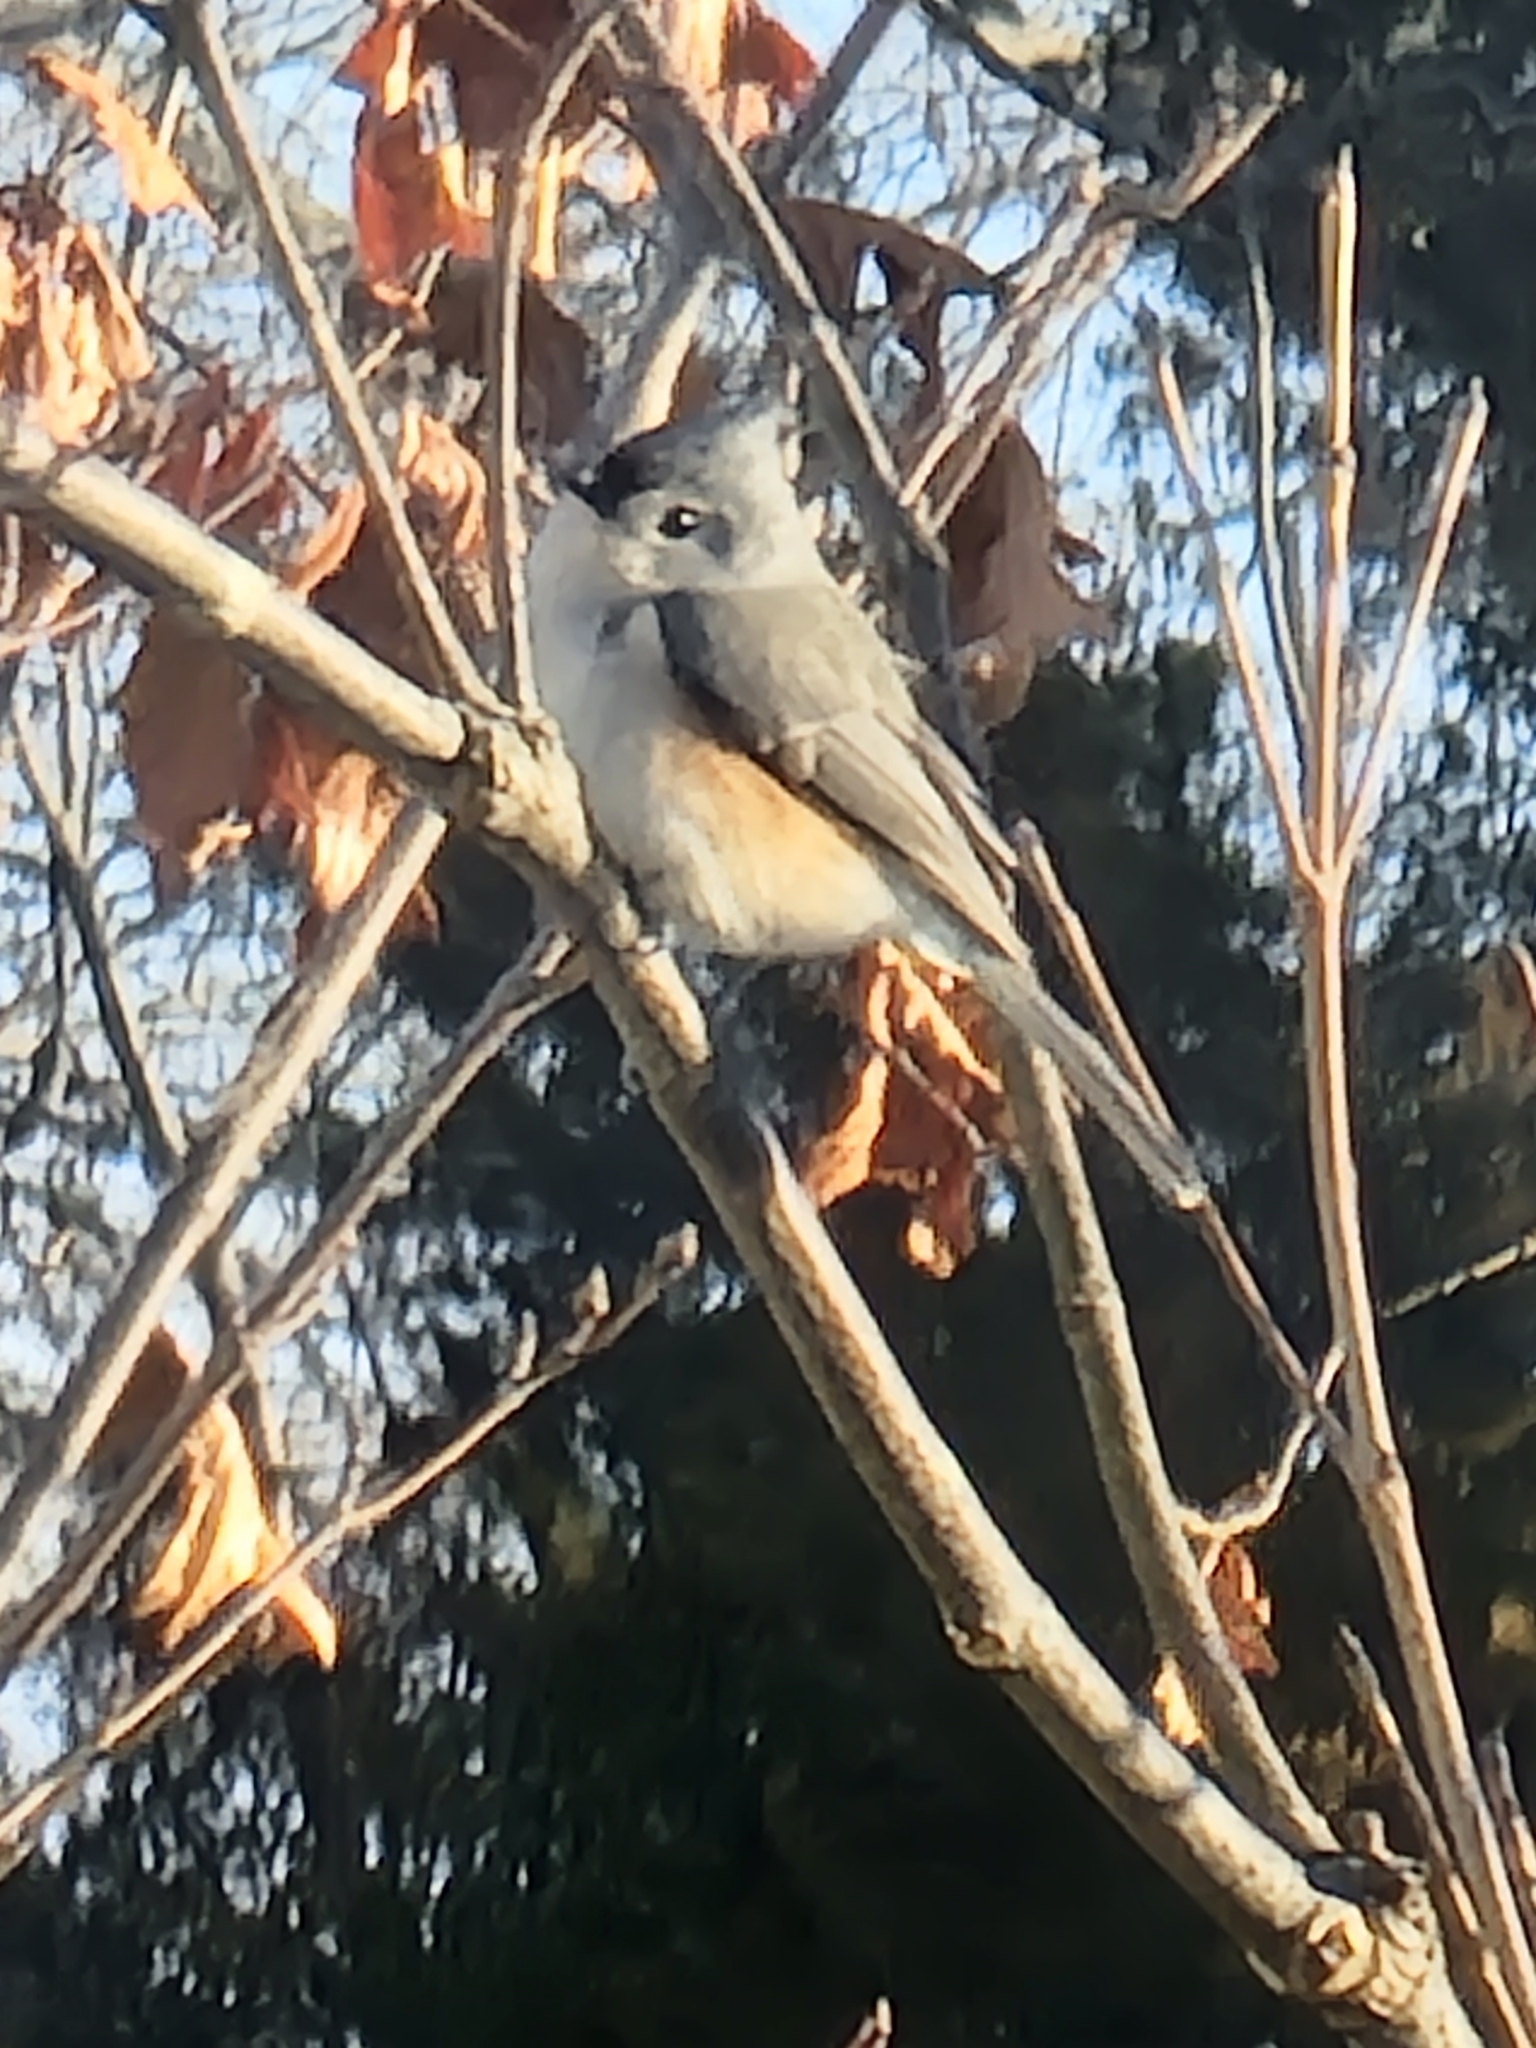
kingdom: Animalia
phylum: Chordata
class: Aves
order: Passeriformes
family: Paridae
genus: Baeolophus
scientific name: Baeolophus bicolor
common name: Tufted titmouse
